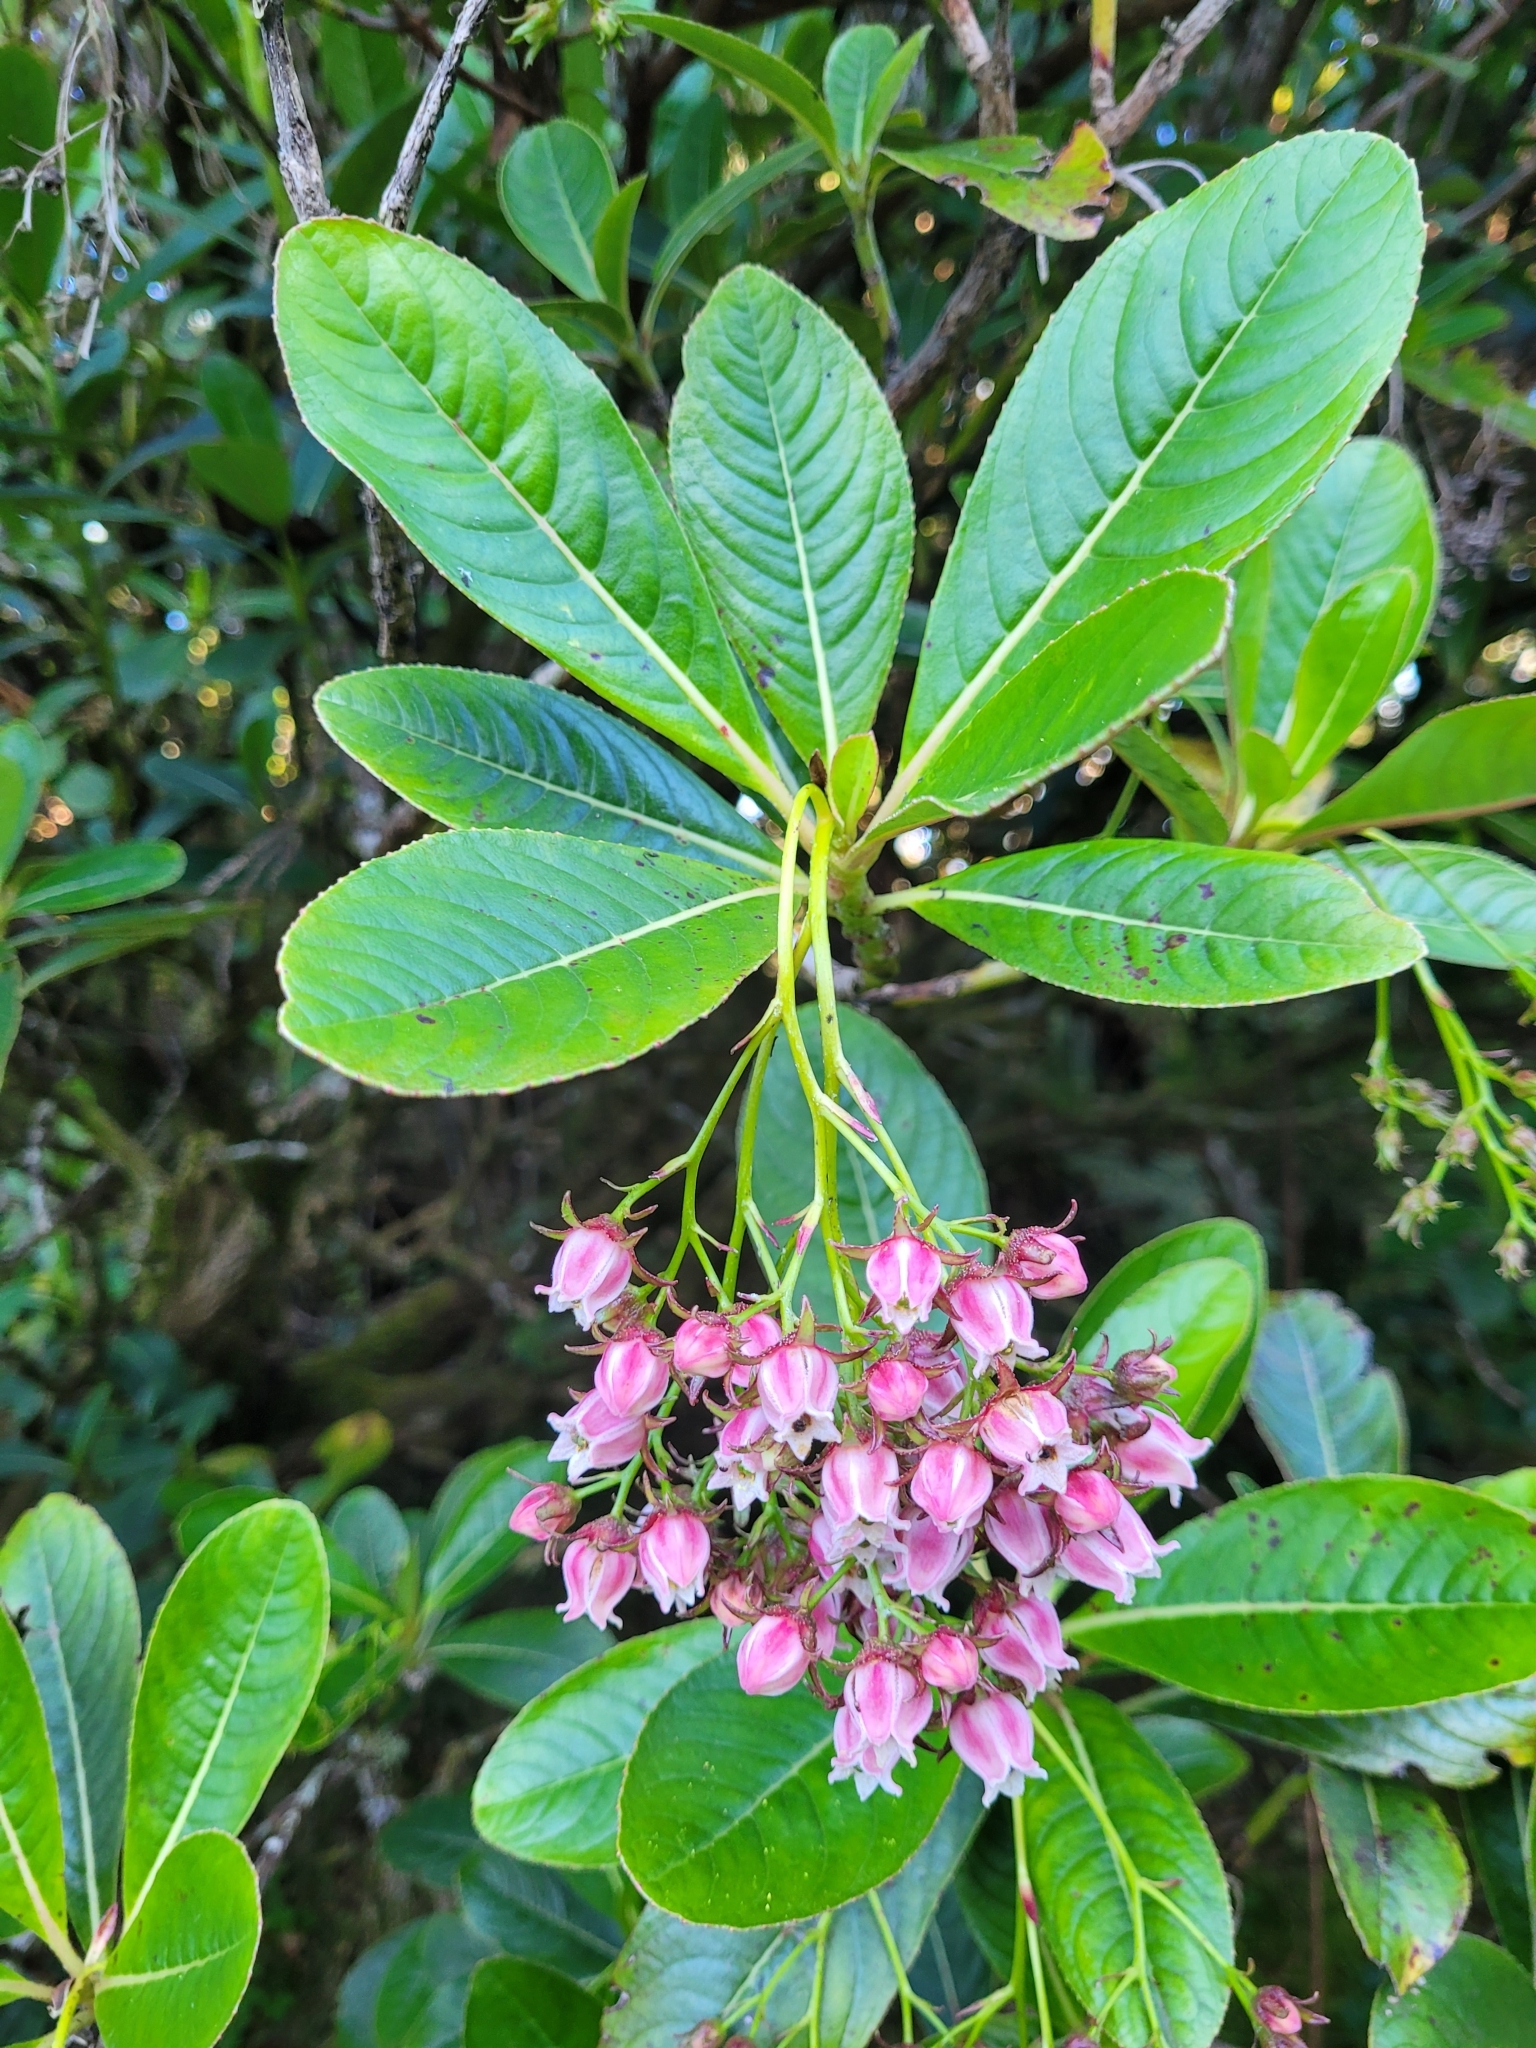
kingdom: Plantae
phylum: Tracheophyta
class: Magnoliopsida
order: Escalloniales
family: Escalloniaceae
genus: Forgesia
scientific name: Forgesia racemosa
